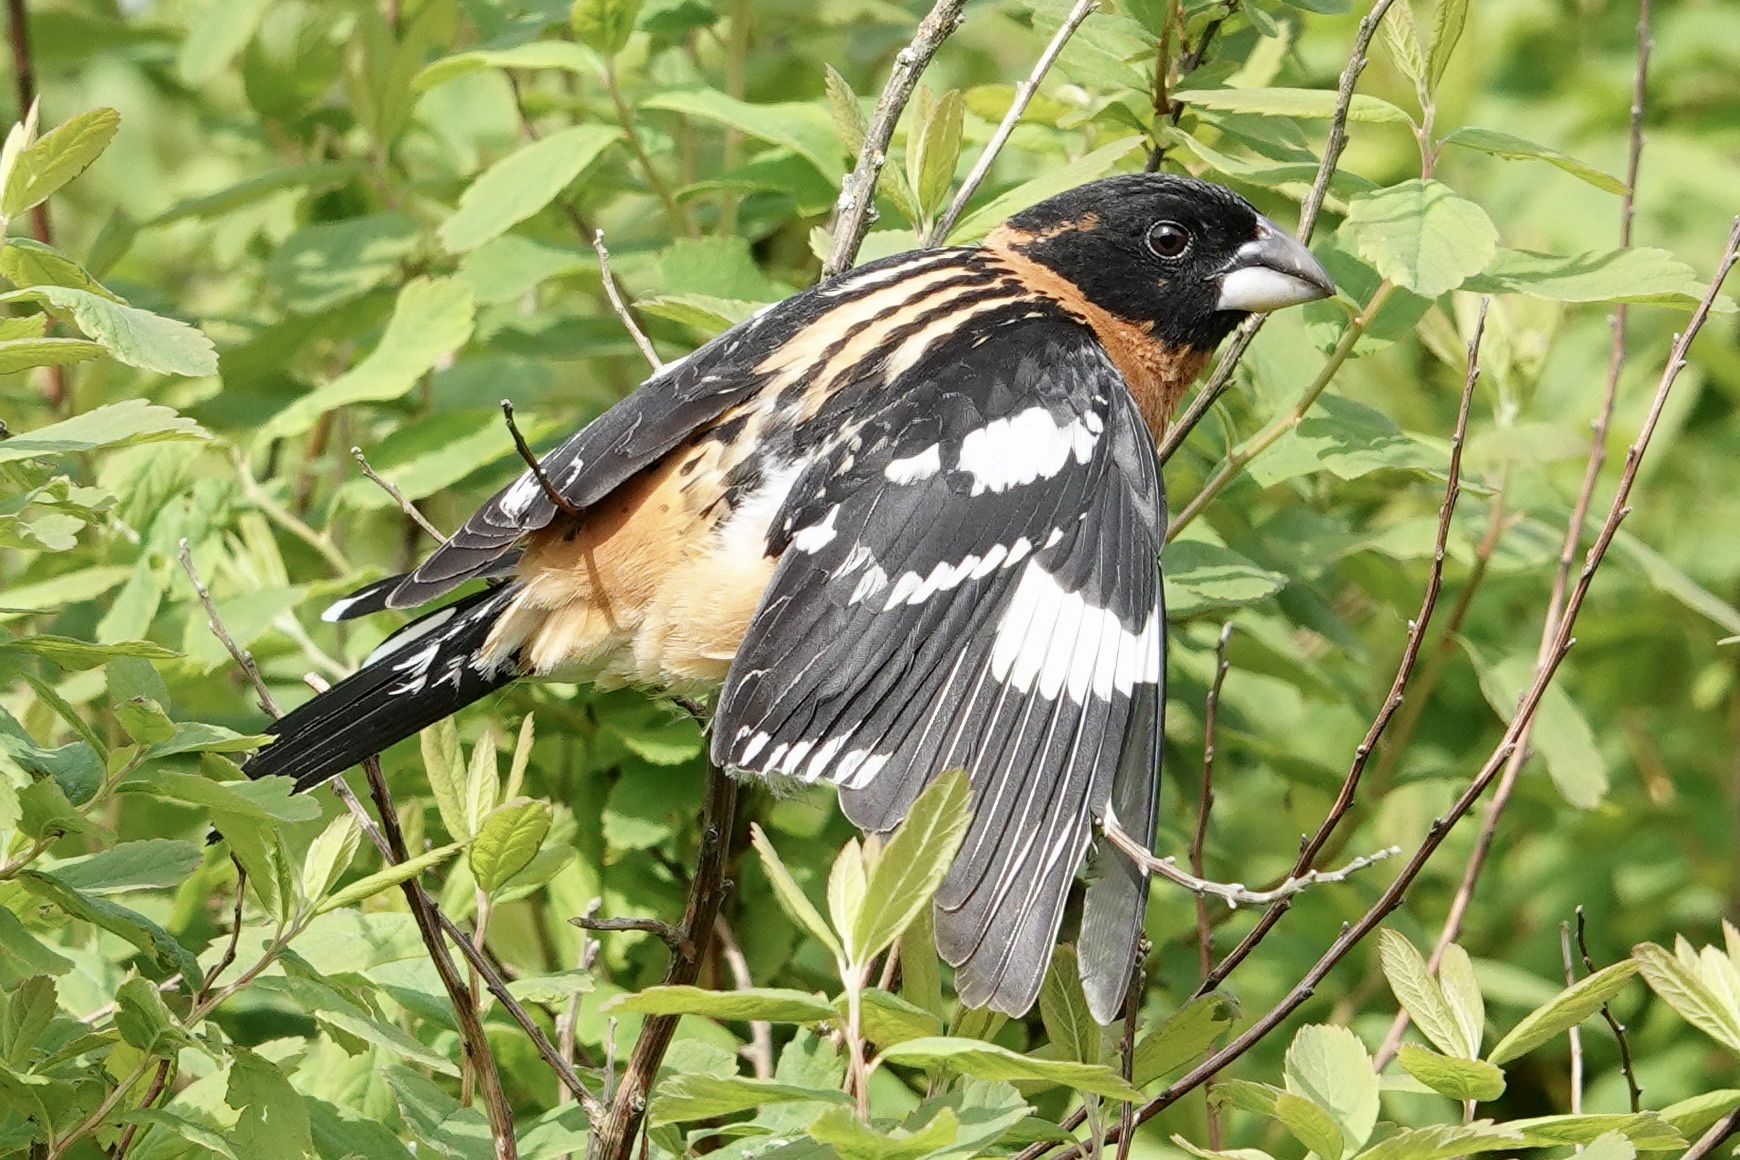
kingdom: Animalia
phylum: Chordata
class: Aves
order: Passeriformes
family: Cardinalidae
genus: Pheucticus
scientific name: Pheucticus melanocephalus
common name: Black-headed grosbeak
